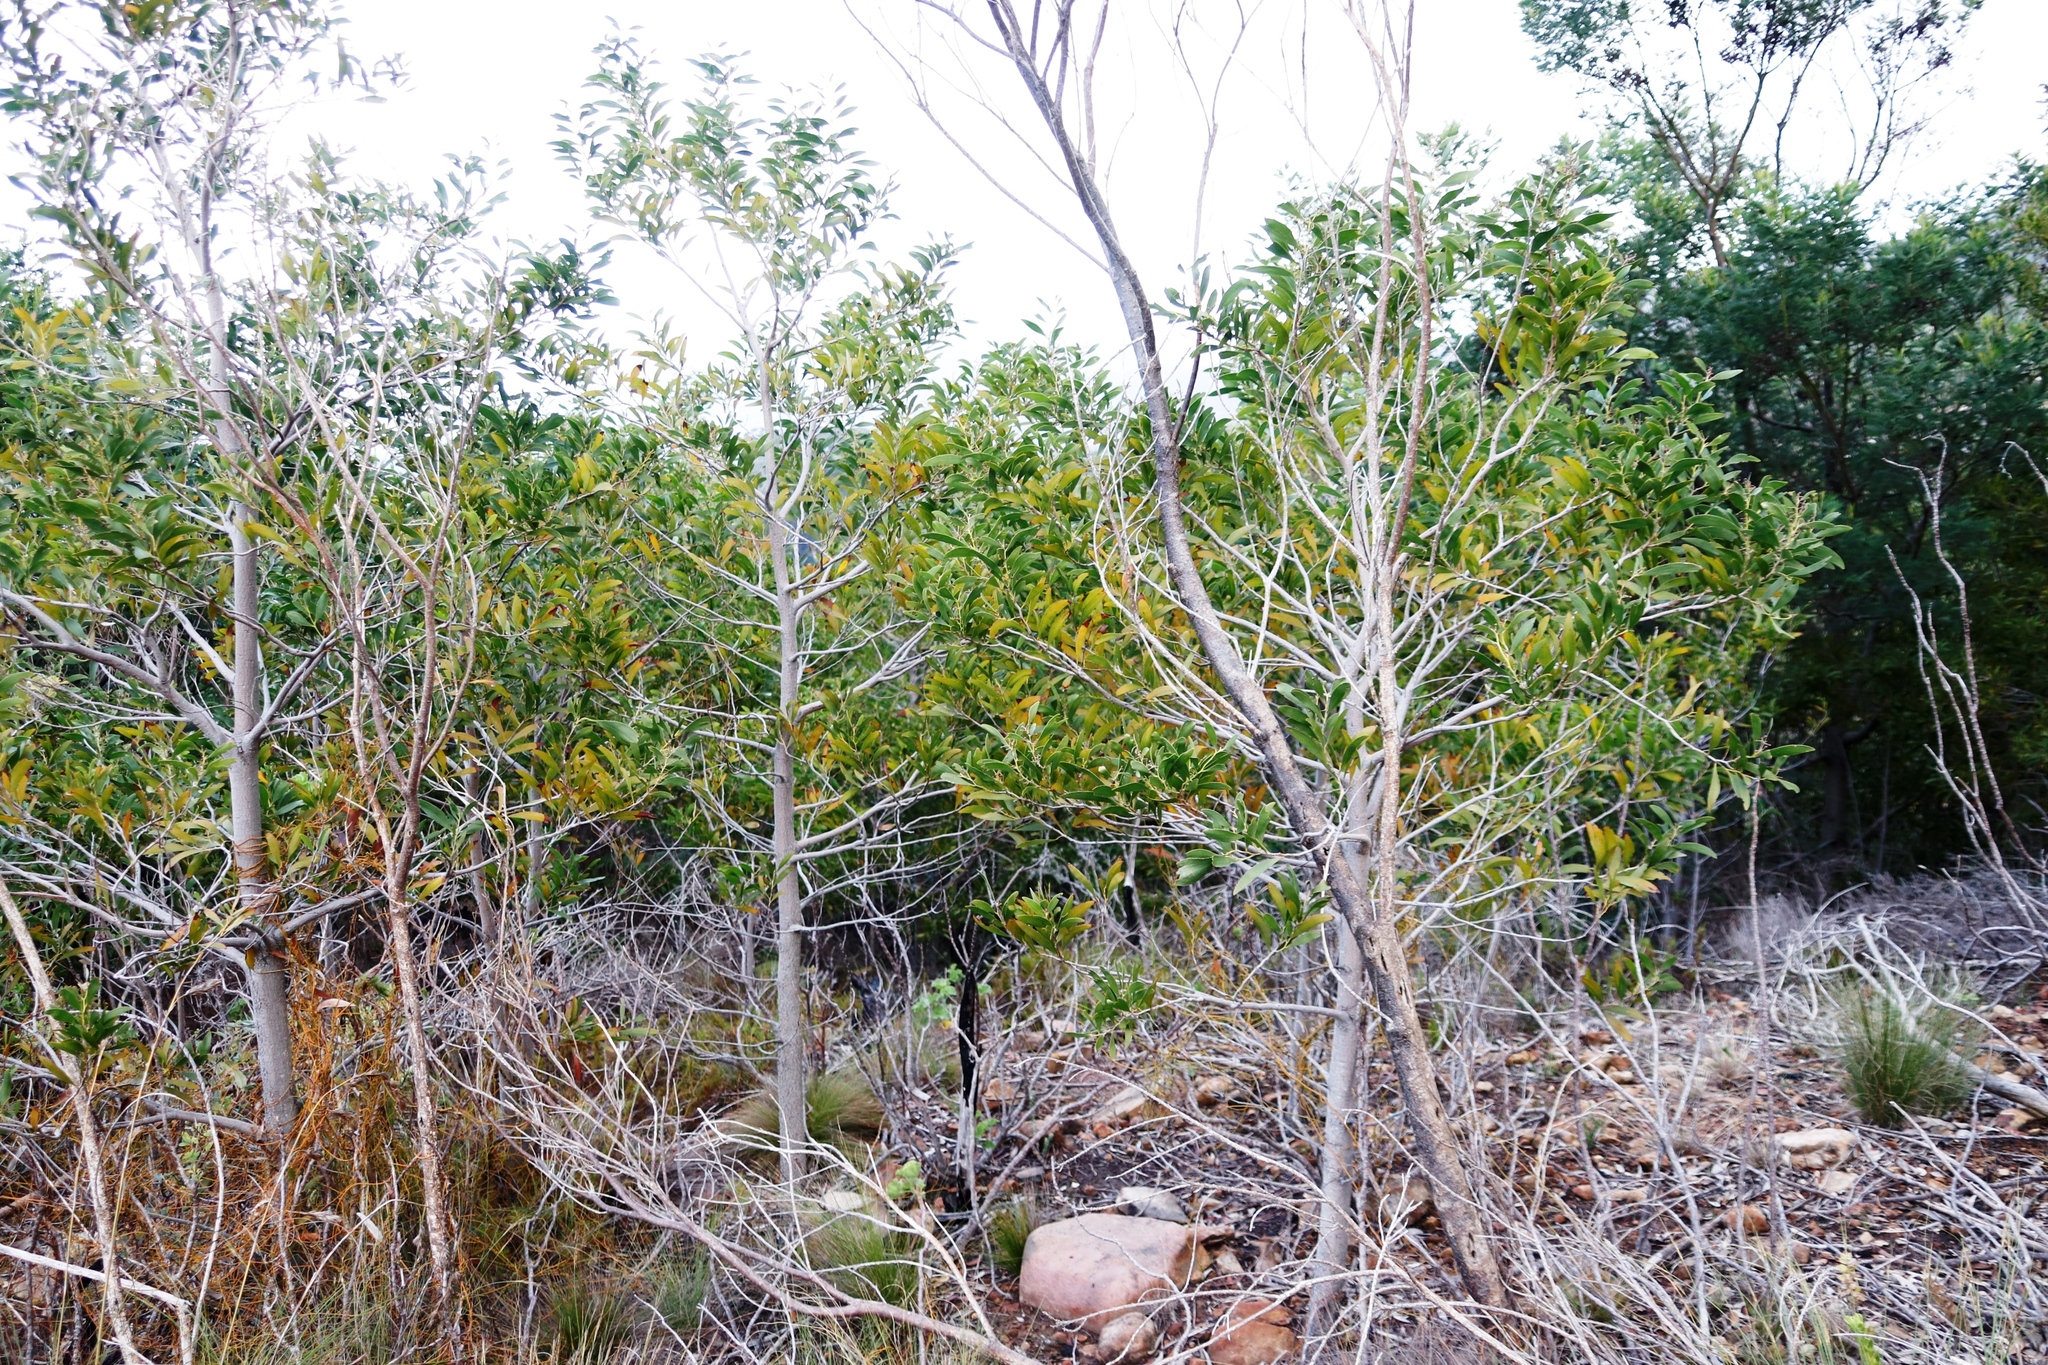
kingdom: Plantae
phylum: Tracheophyta
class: Magnoliopsida
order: Fabales
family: Fabaceae
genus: Acacia
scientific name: Acacia melanoxylon
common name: Blackwood
